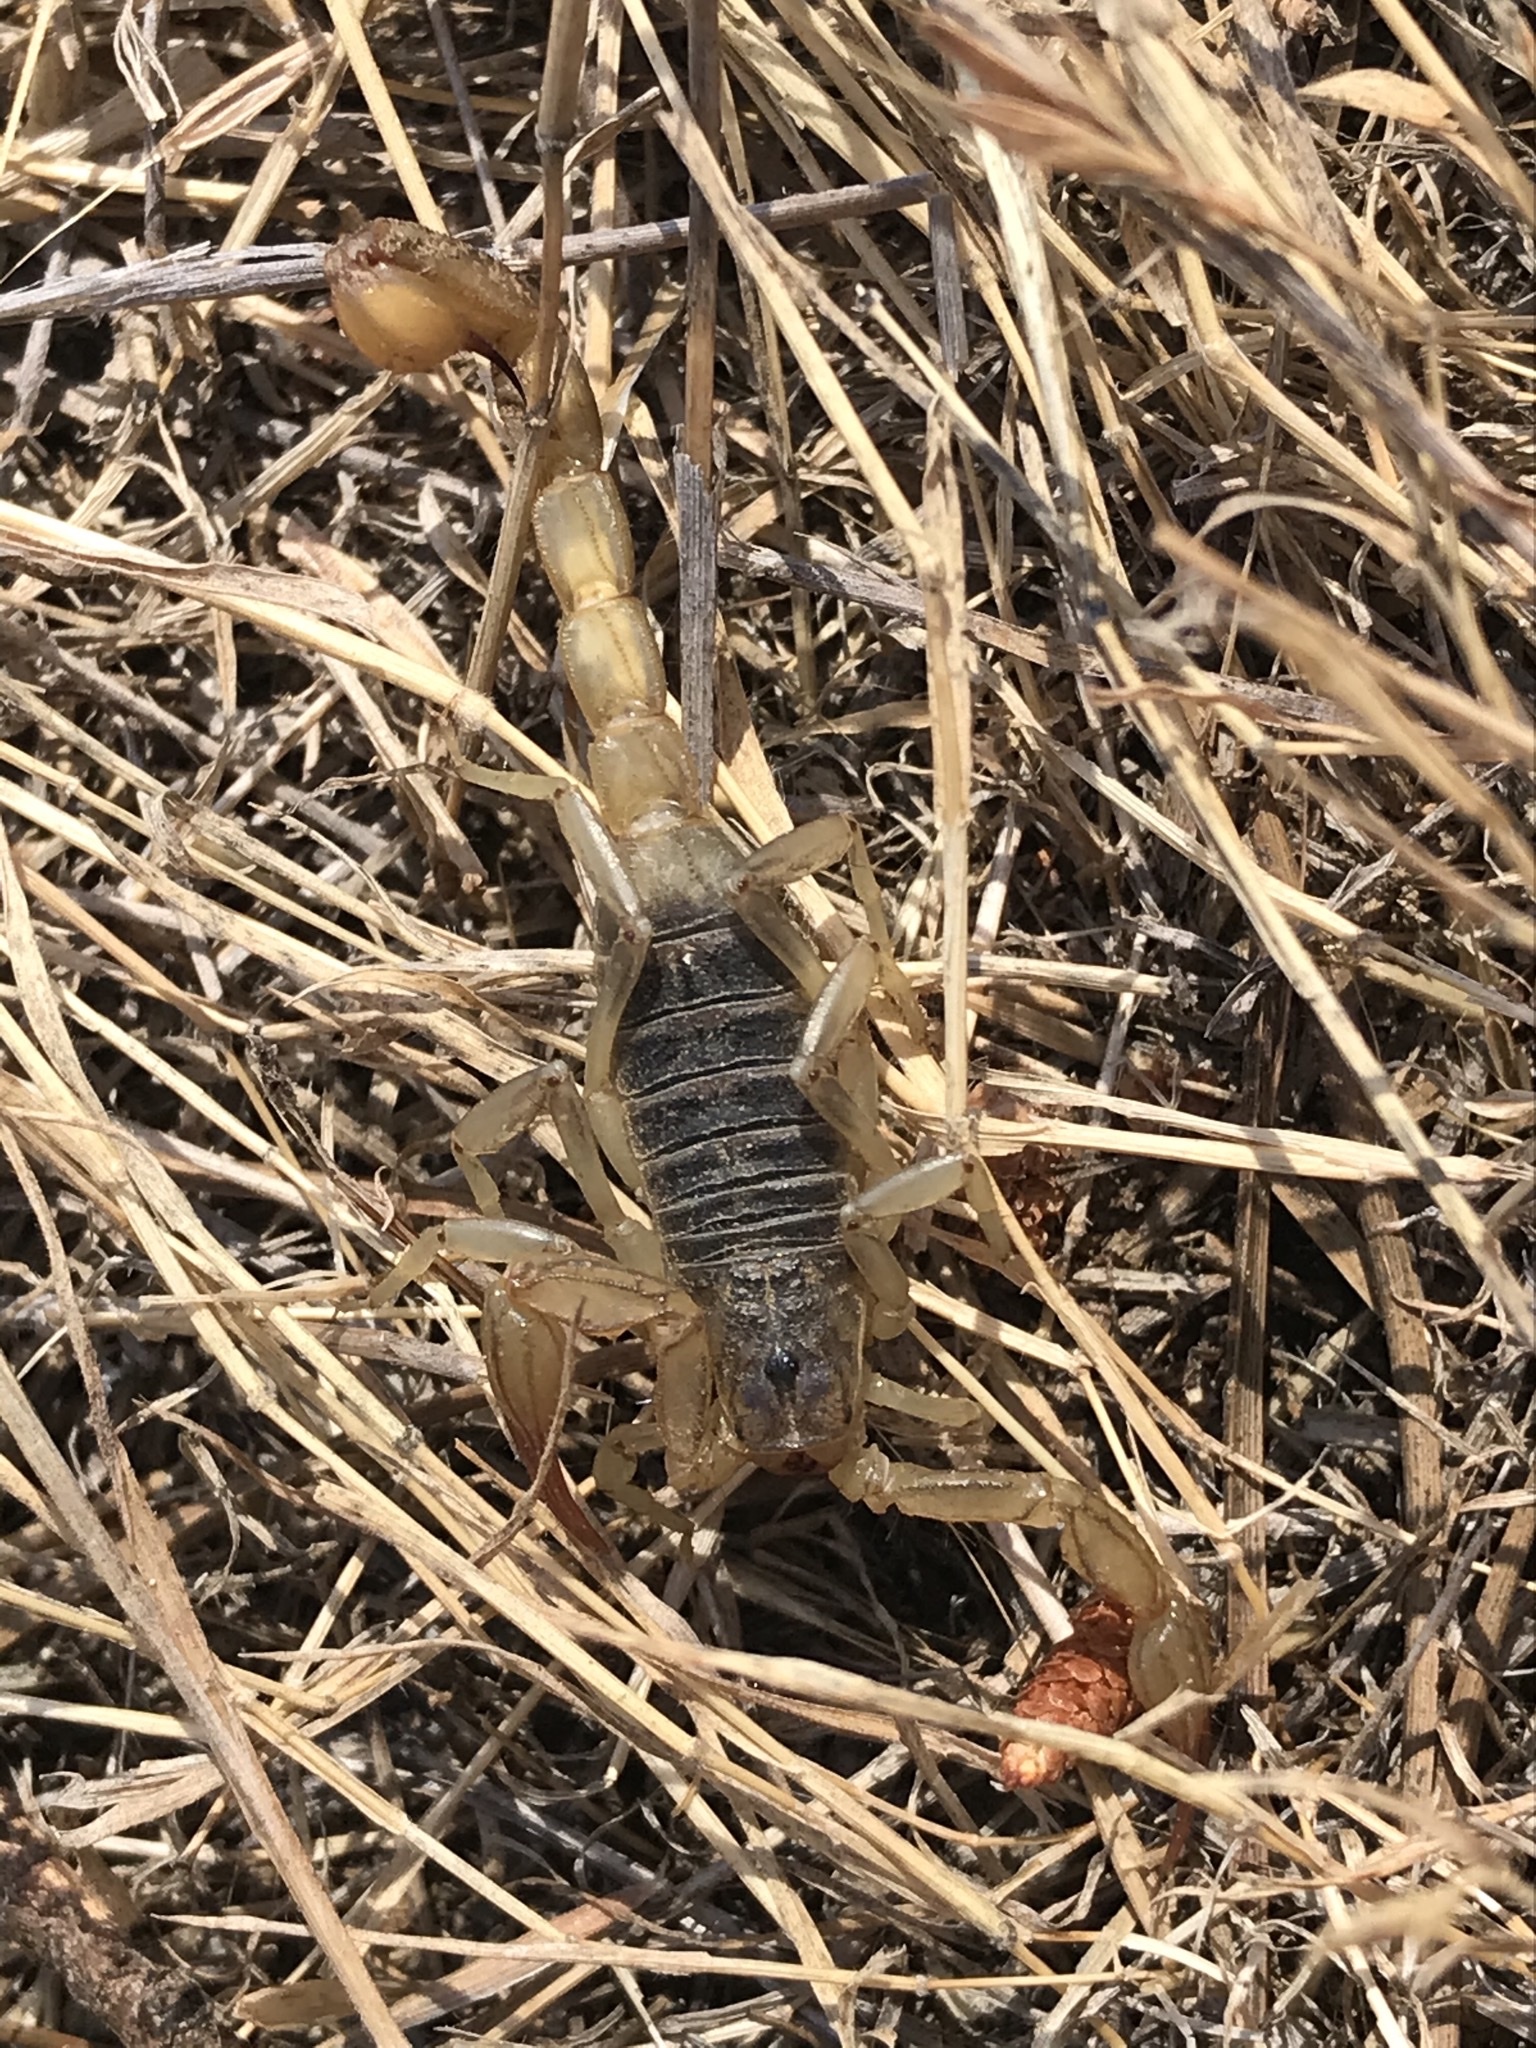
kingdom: Animalia
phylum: Arthropoda
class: Arachnida
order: Scorpiones
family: Vaejovidae
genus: Paruroctonus
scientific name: Paruroctonus silvestrii
